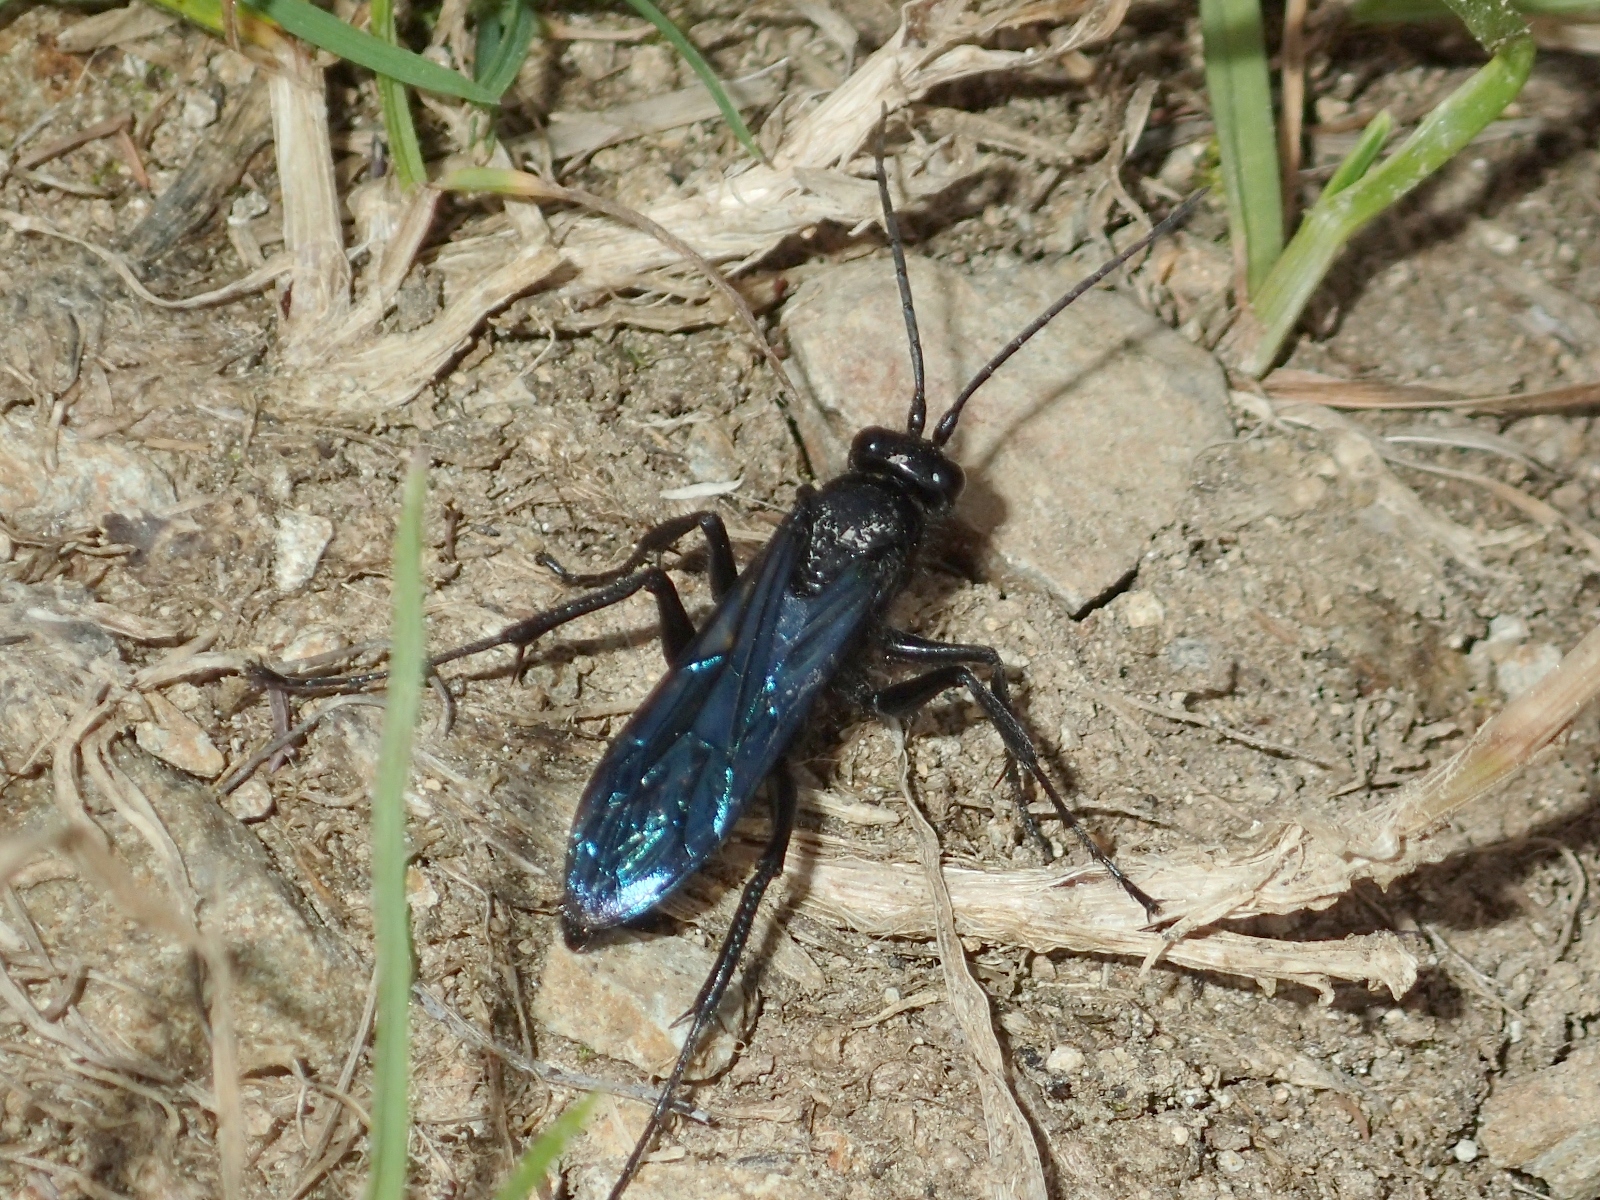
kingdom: Animalia
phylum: Arthropoda
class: Insecta
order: Hymenoptera
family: Pompilidae
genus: Priocnemis
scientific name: Priocnemis monachus
